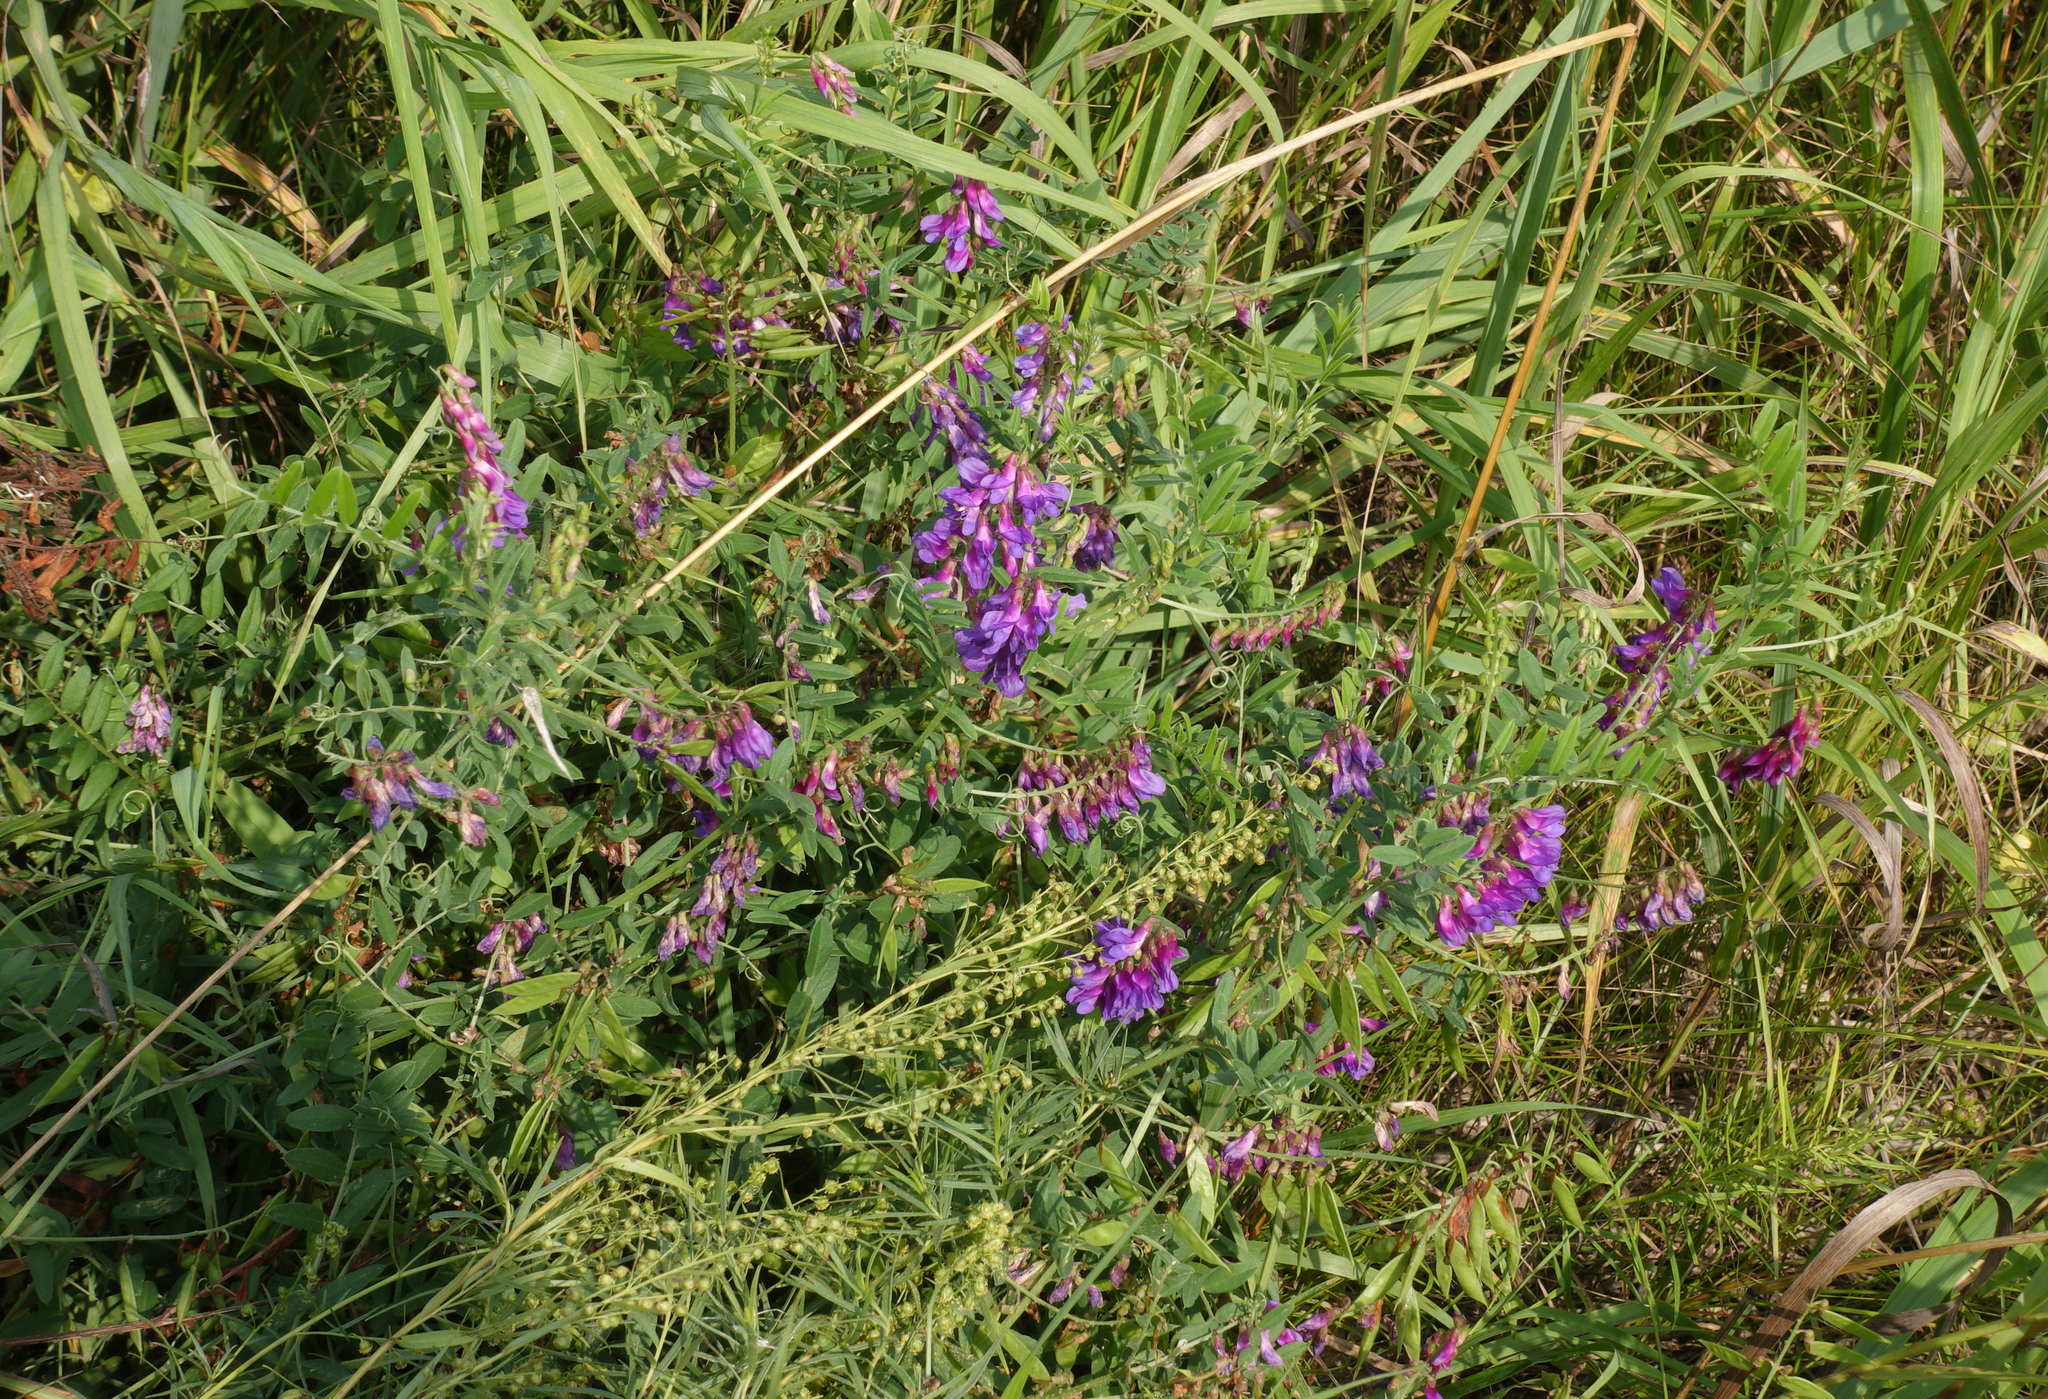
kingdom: Plantae
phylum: Tracheophyta
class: Magnoliopsida
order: Fabales
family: Fabaceae
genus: Vicia
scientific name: Vicia amoena
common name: Cheder ebs
